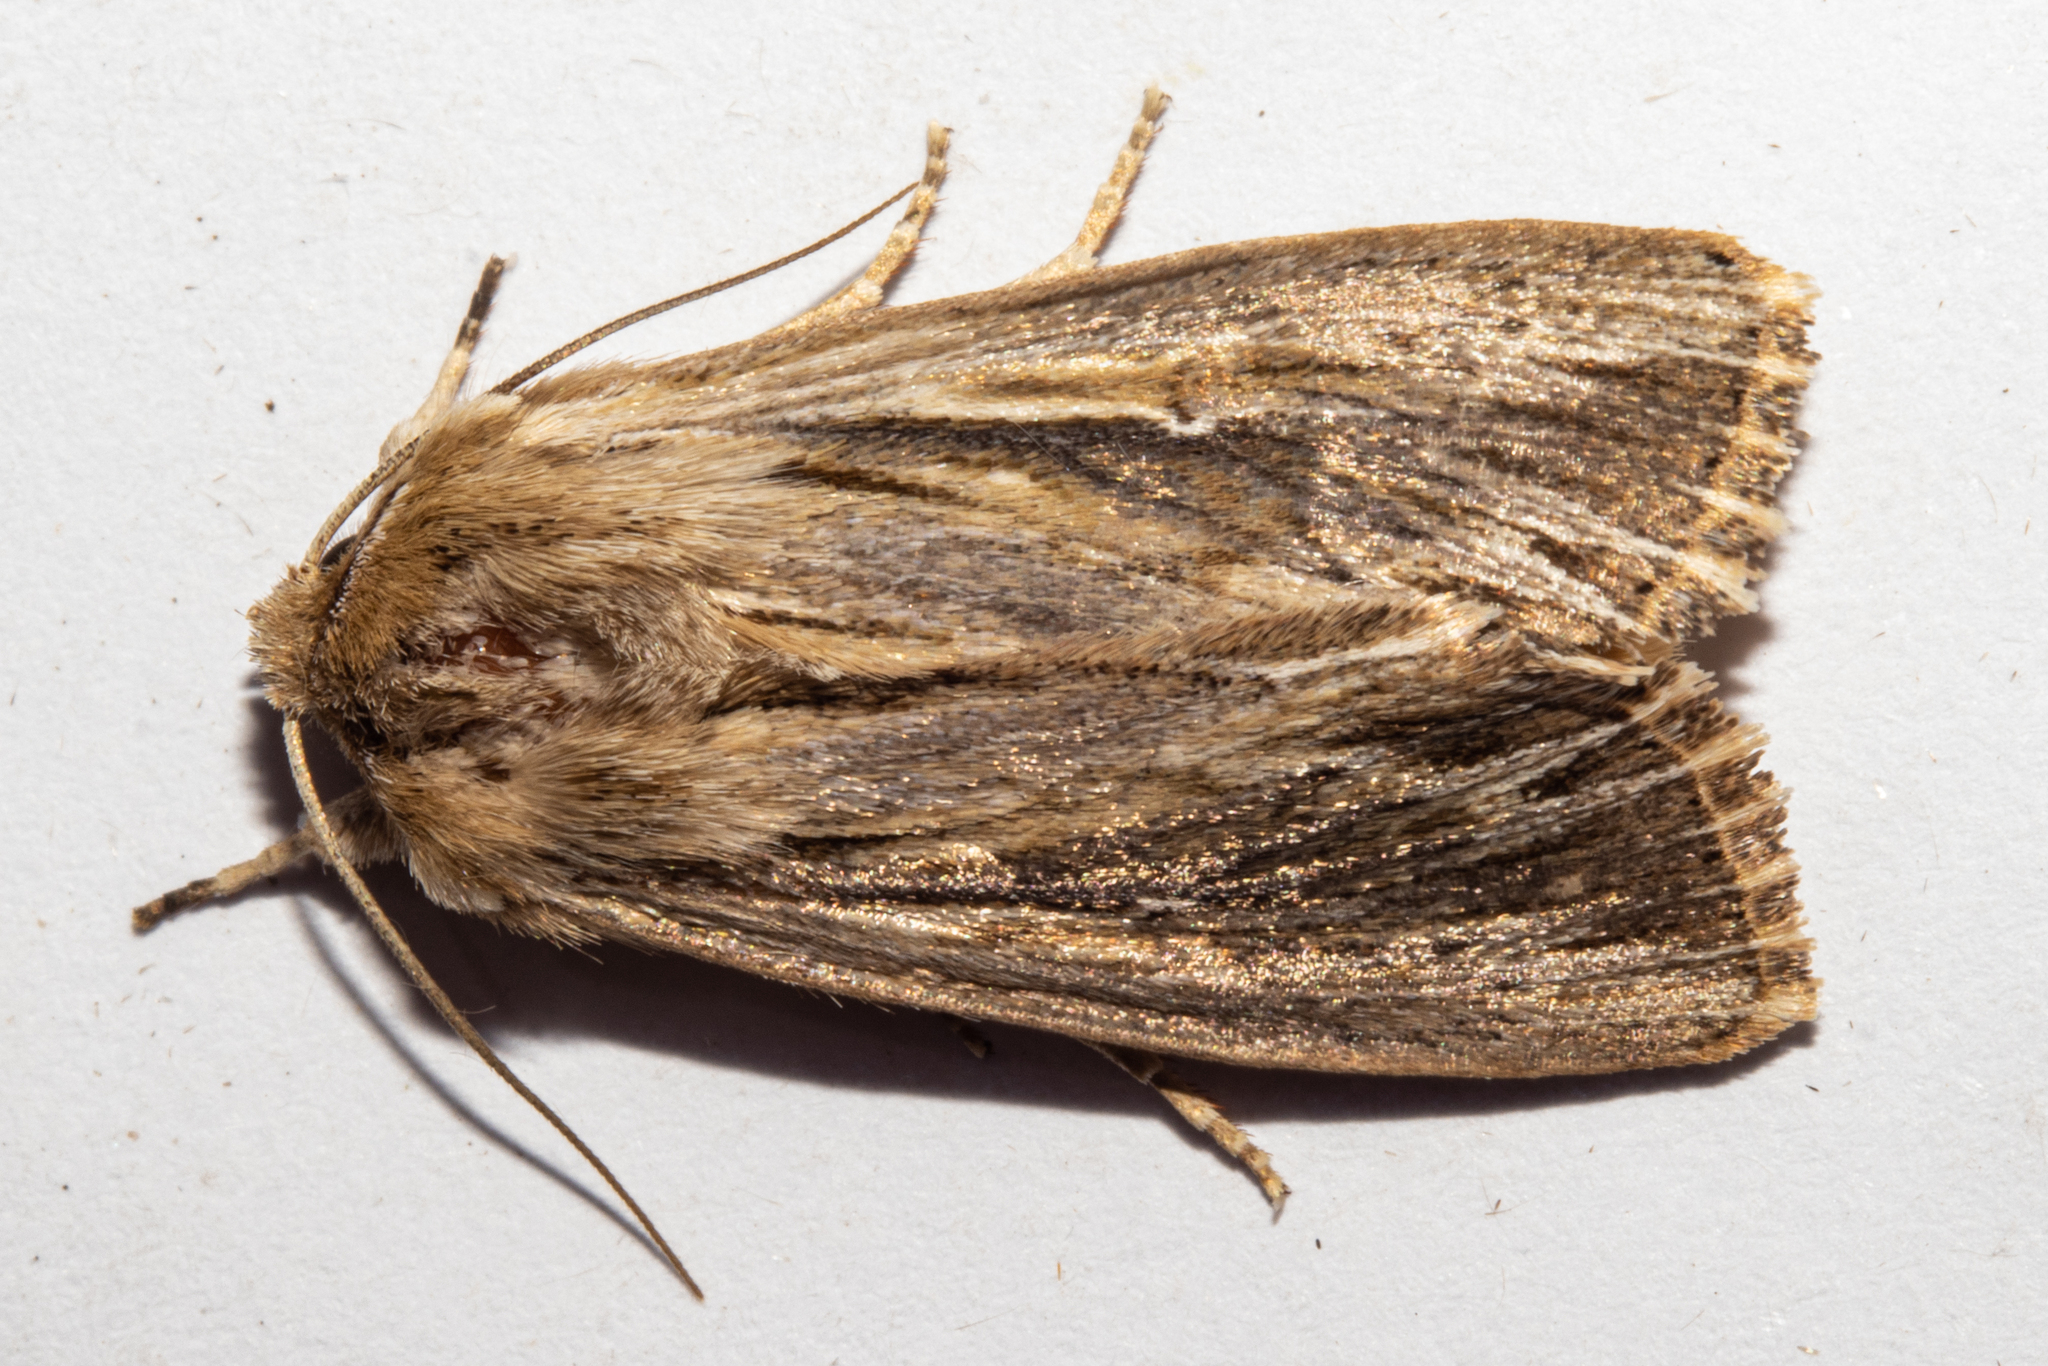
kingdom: Animalia
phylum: Arthropoda
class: Insecta
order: Lepidoptera
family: Noctuidae
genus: Persectania
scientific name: Persectania aversa
